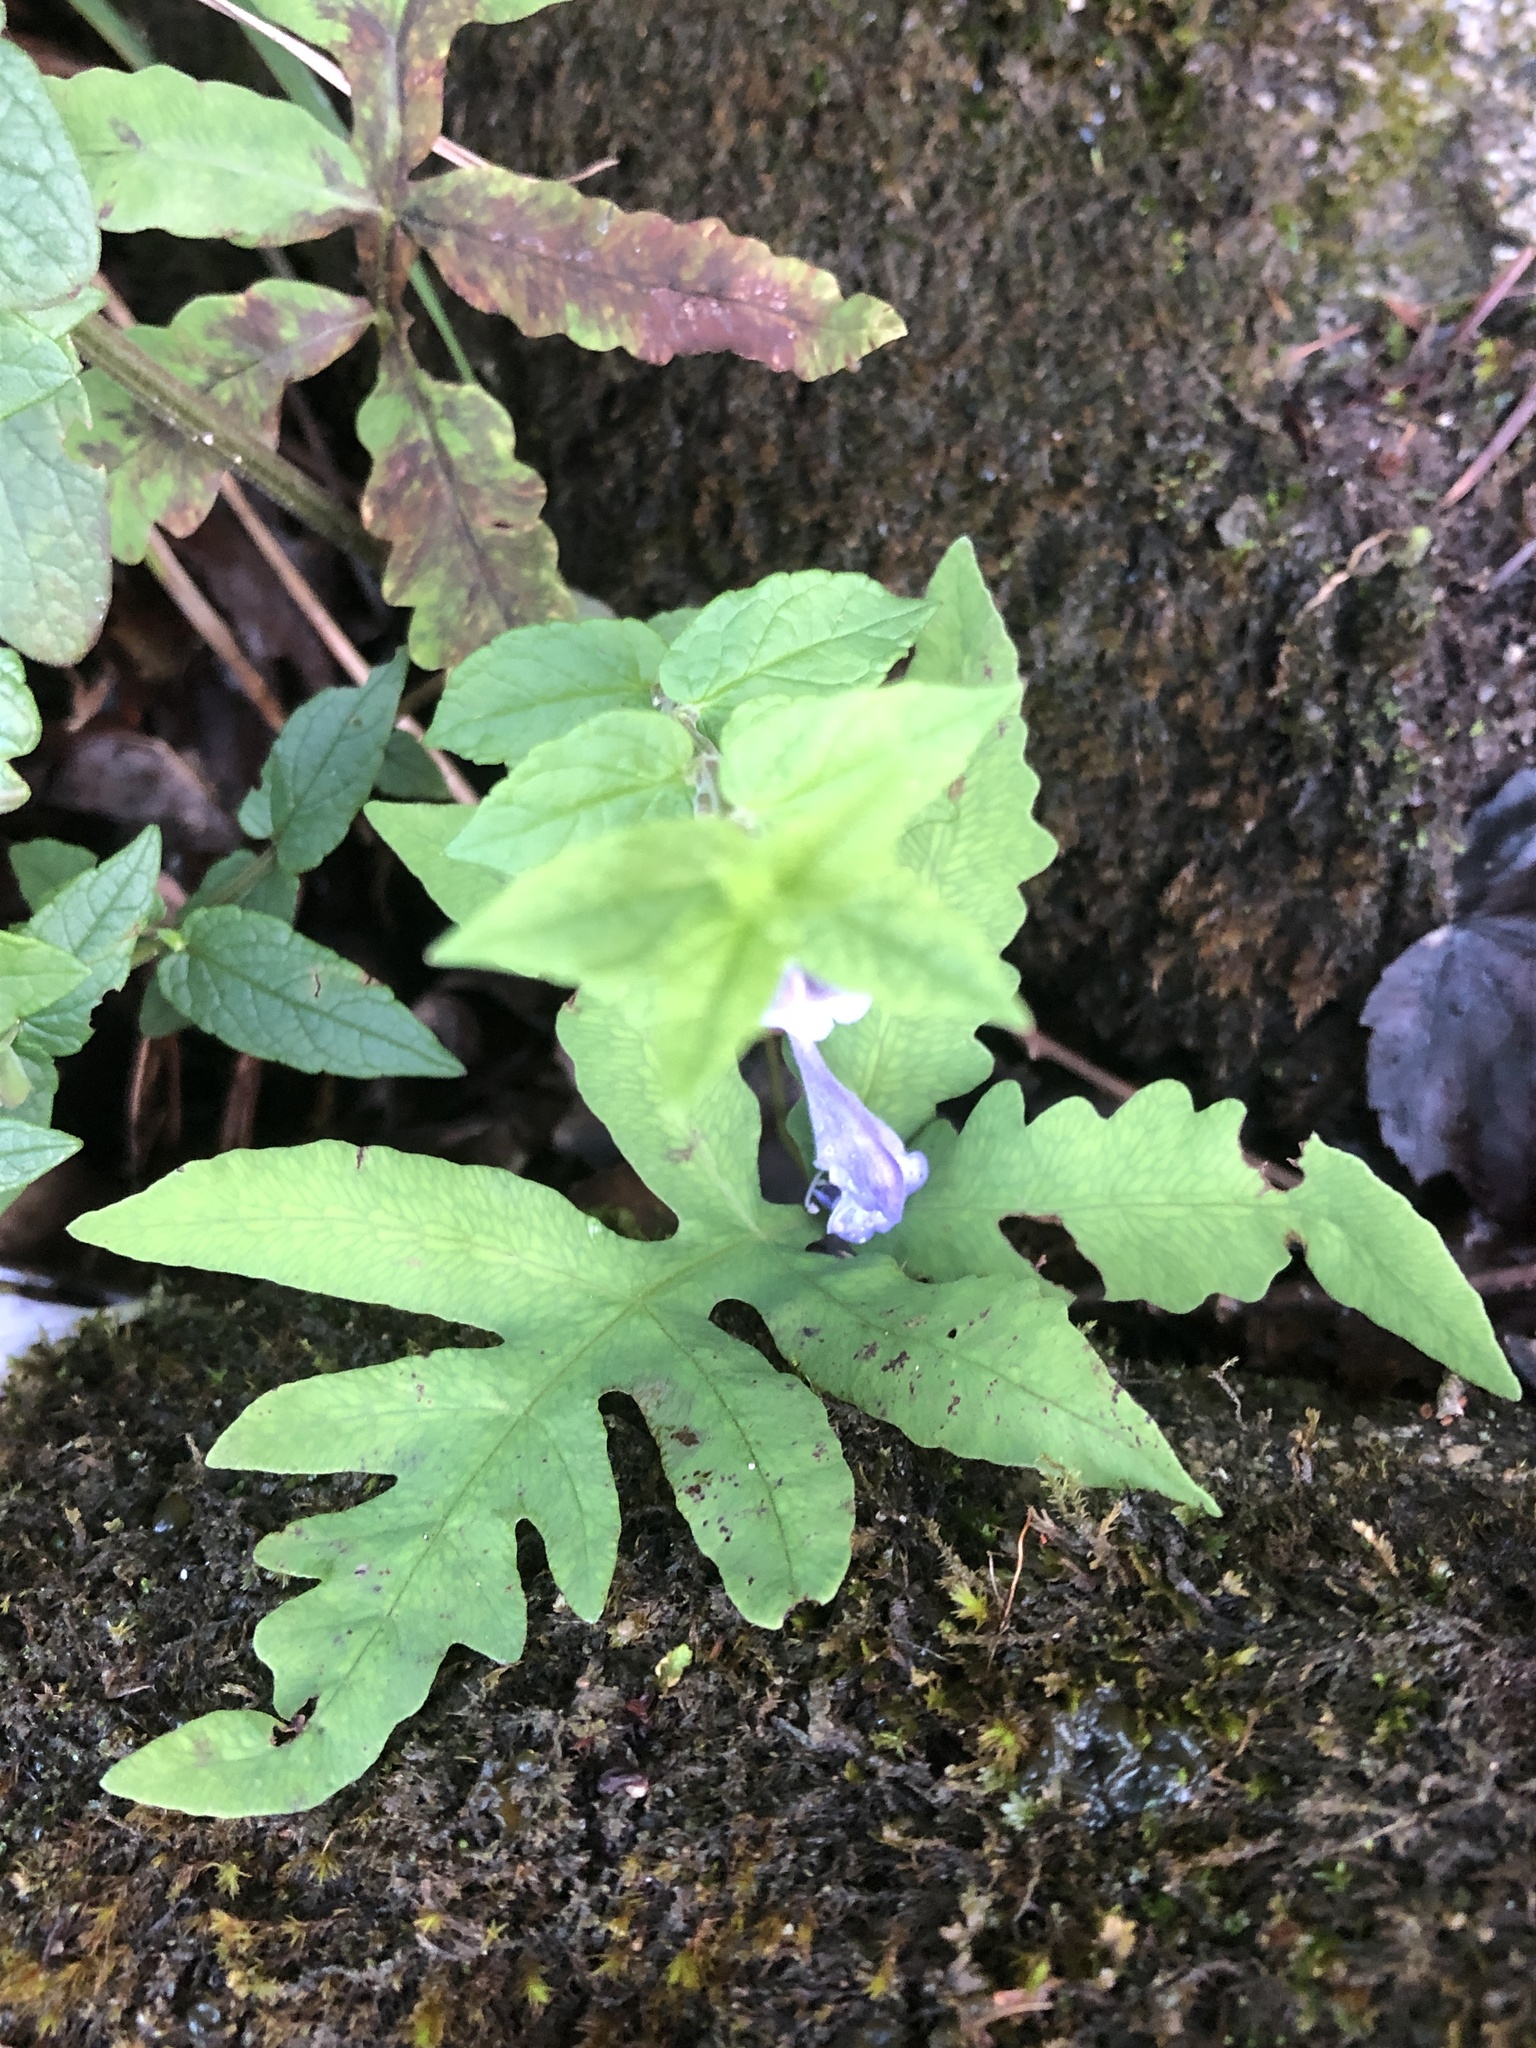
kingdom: Plantae
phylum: Tracheophyta
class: Magnoliopsida
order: Lamiales
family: Lamiaceae
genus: Scutellaria
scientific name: Scutellaria galericulata
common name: Skullcap
